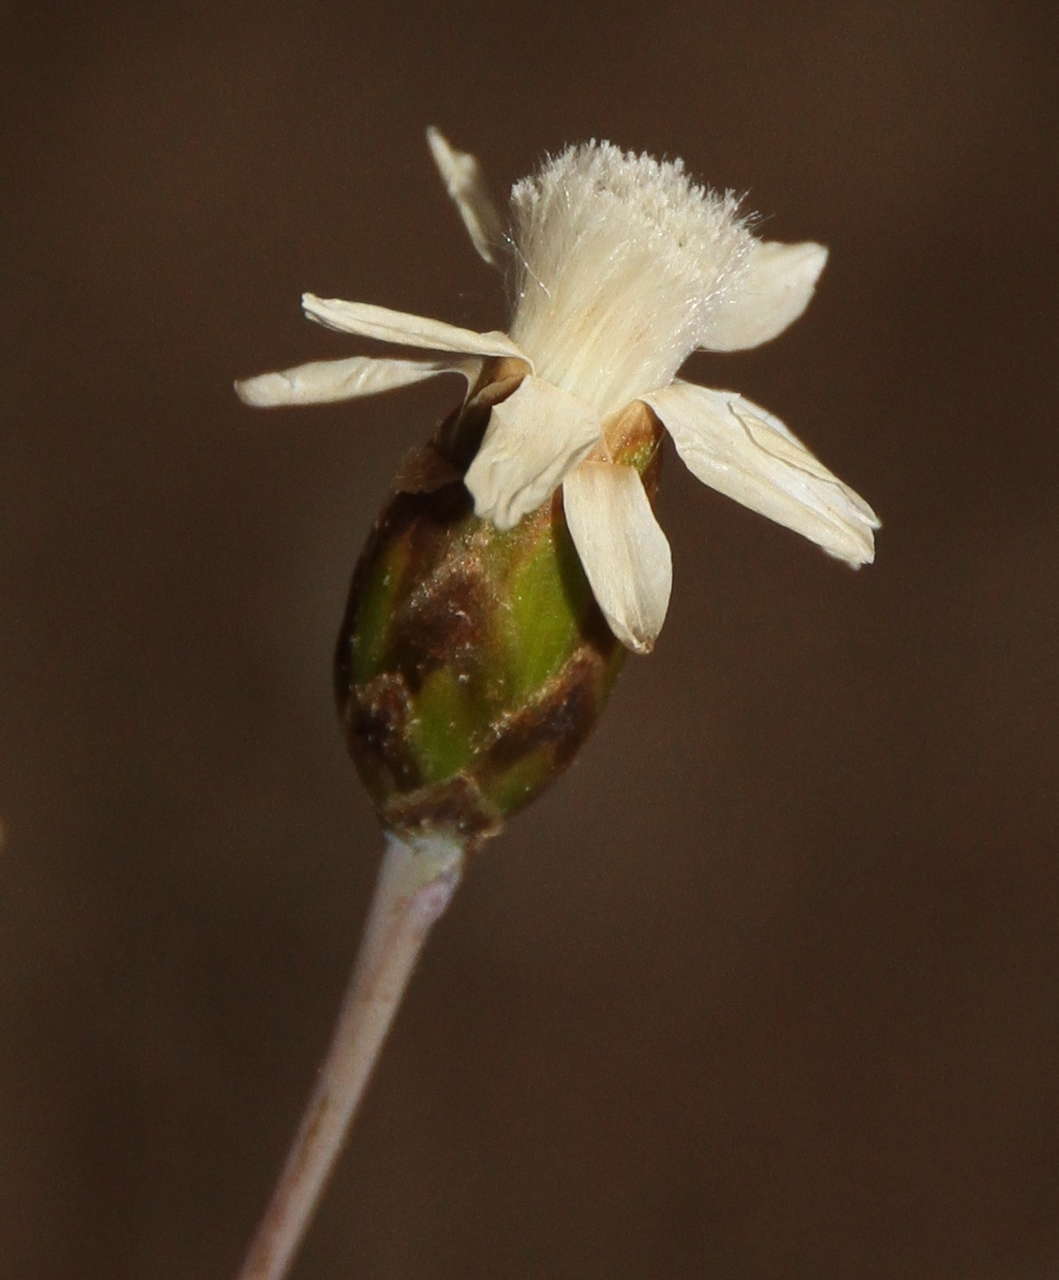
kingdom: Plantae
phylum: Tracheophyta
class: Magnoliopsida
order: Asterales
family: Asteraceae
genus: Rhodanthe
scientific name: Rhodanthe stricta
